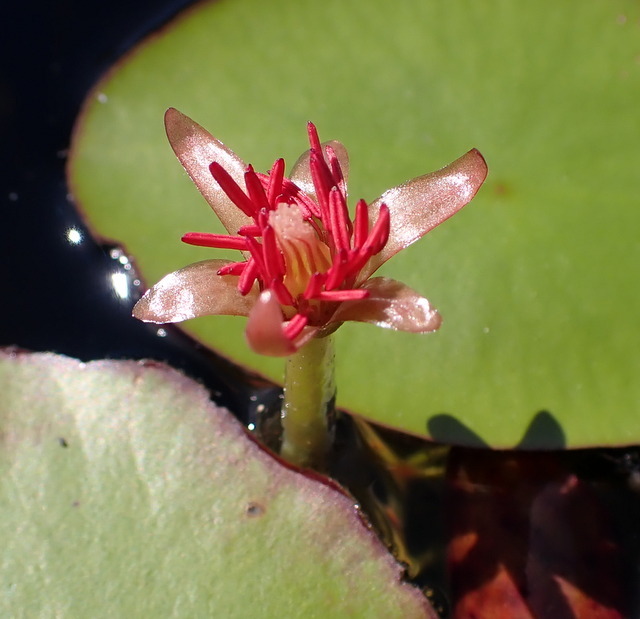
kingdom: Plantae
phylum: Tracheophyta
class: Magnoliopsida
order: Nymphaeales
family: Cabombaceae
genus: Brasenia
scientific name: Brasenia schreberi
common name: Water-shield
